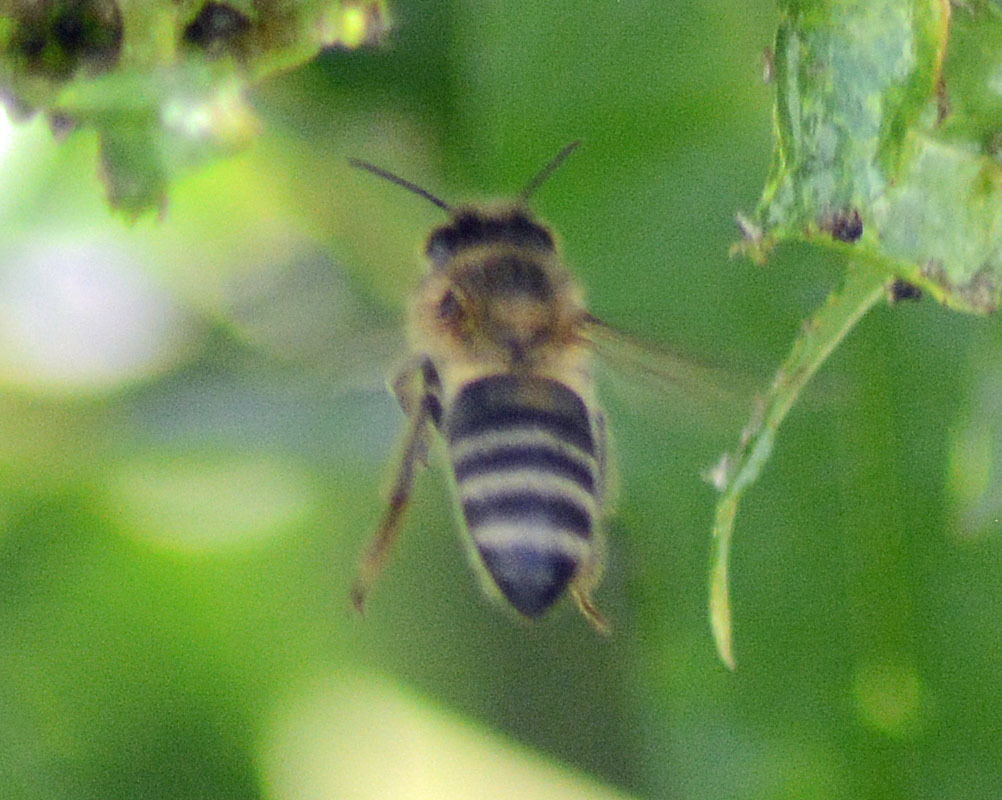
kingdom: Animalia
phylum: Arthropoda
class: Insecta
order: Hymenoptera
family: Apidae
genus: Apis
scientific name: Apis mellifera
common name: Honey bee
